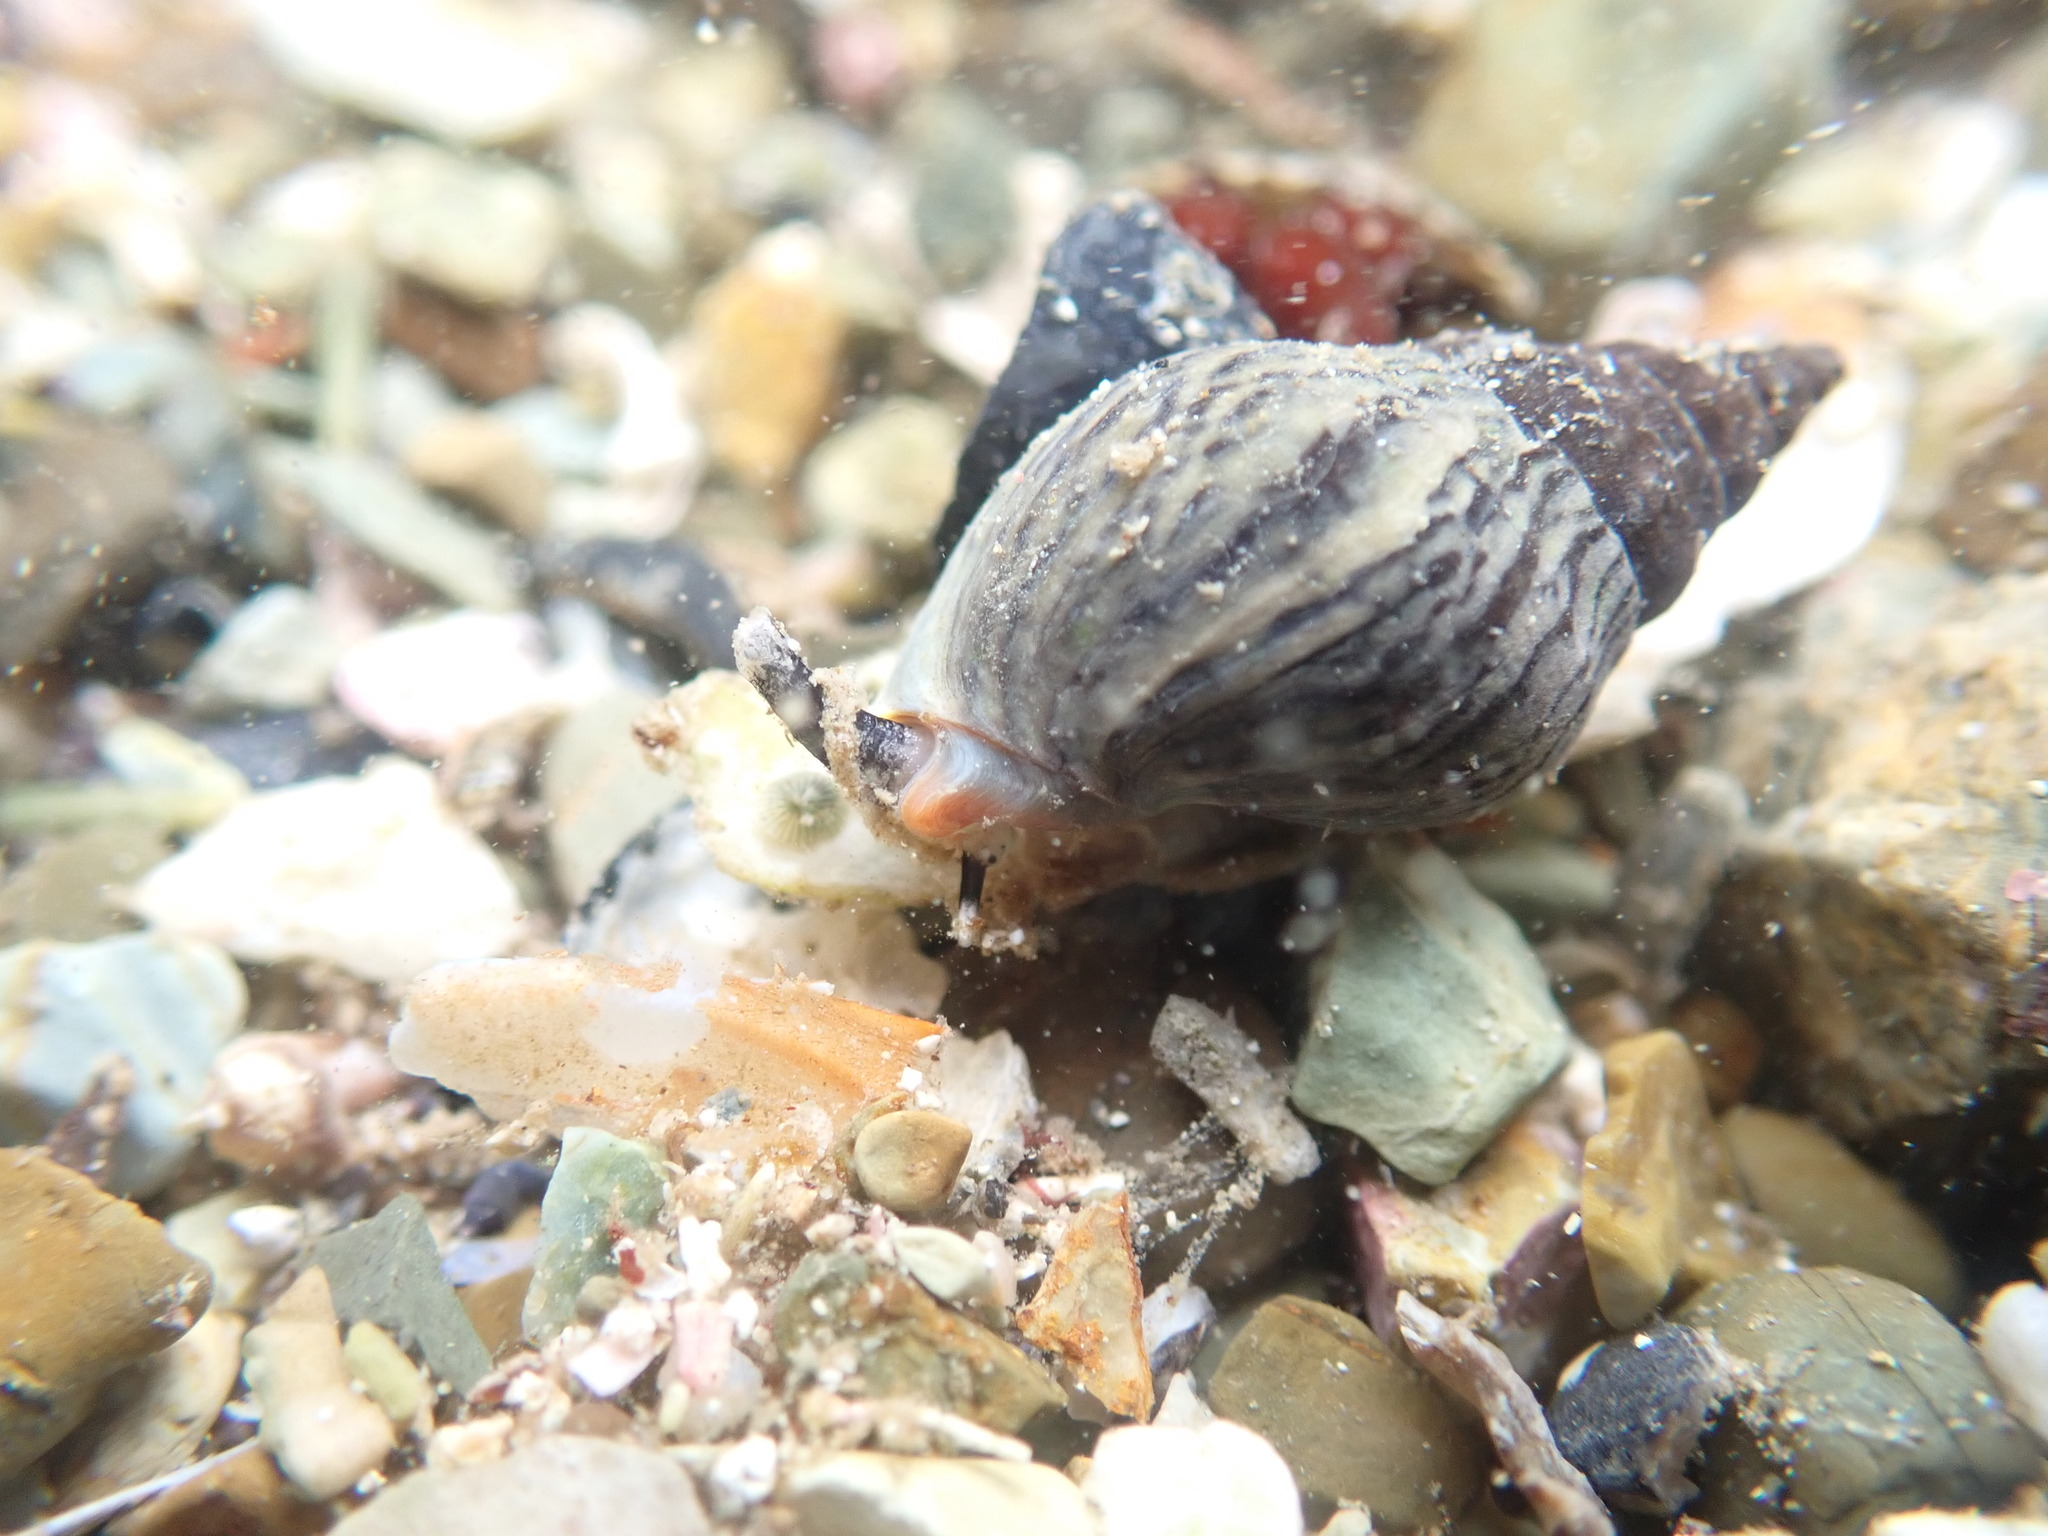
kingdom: Animalia
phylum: Mollusca
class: Gastropoda
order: Neogastropoda
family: Cominellidae
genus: Cominella
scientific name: Cominella virgata
